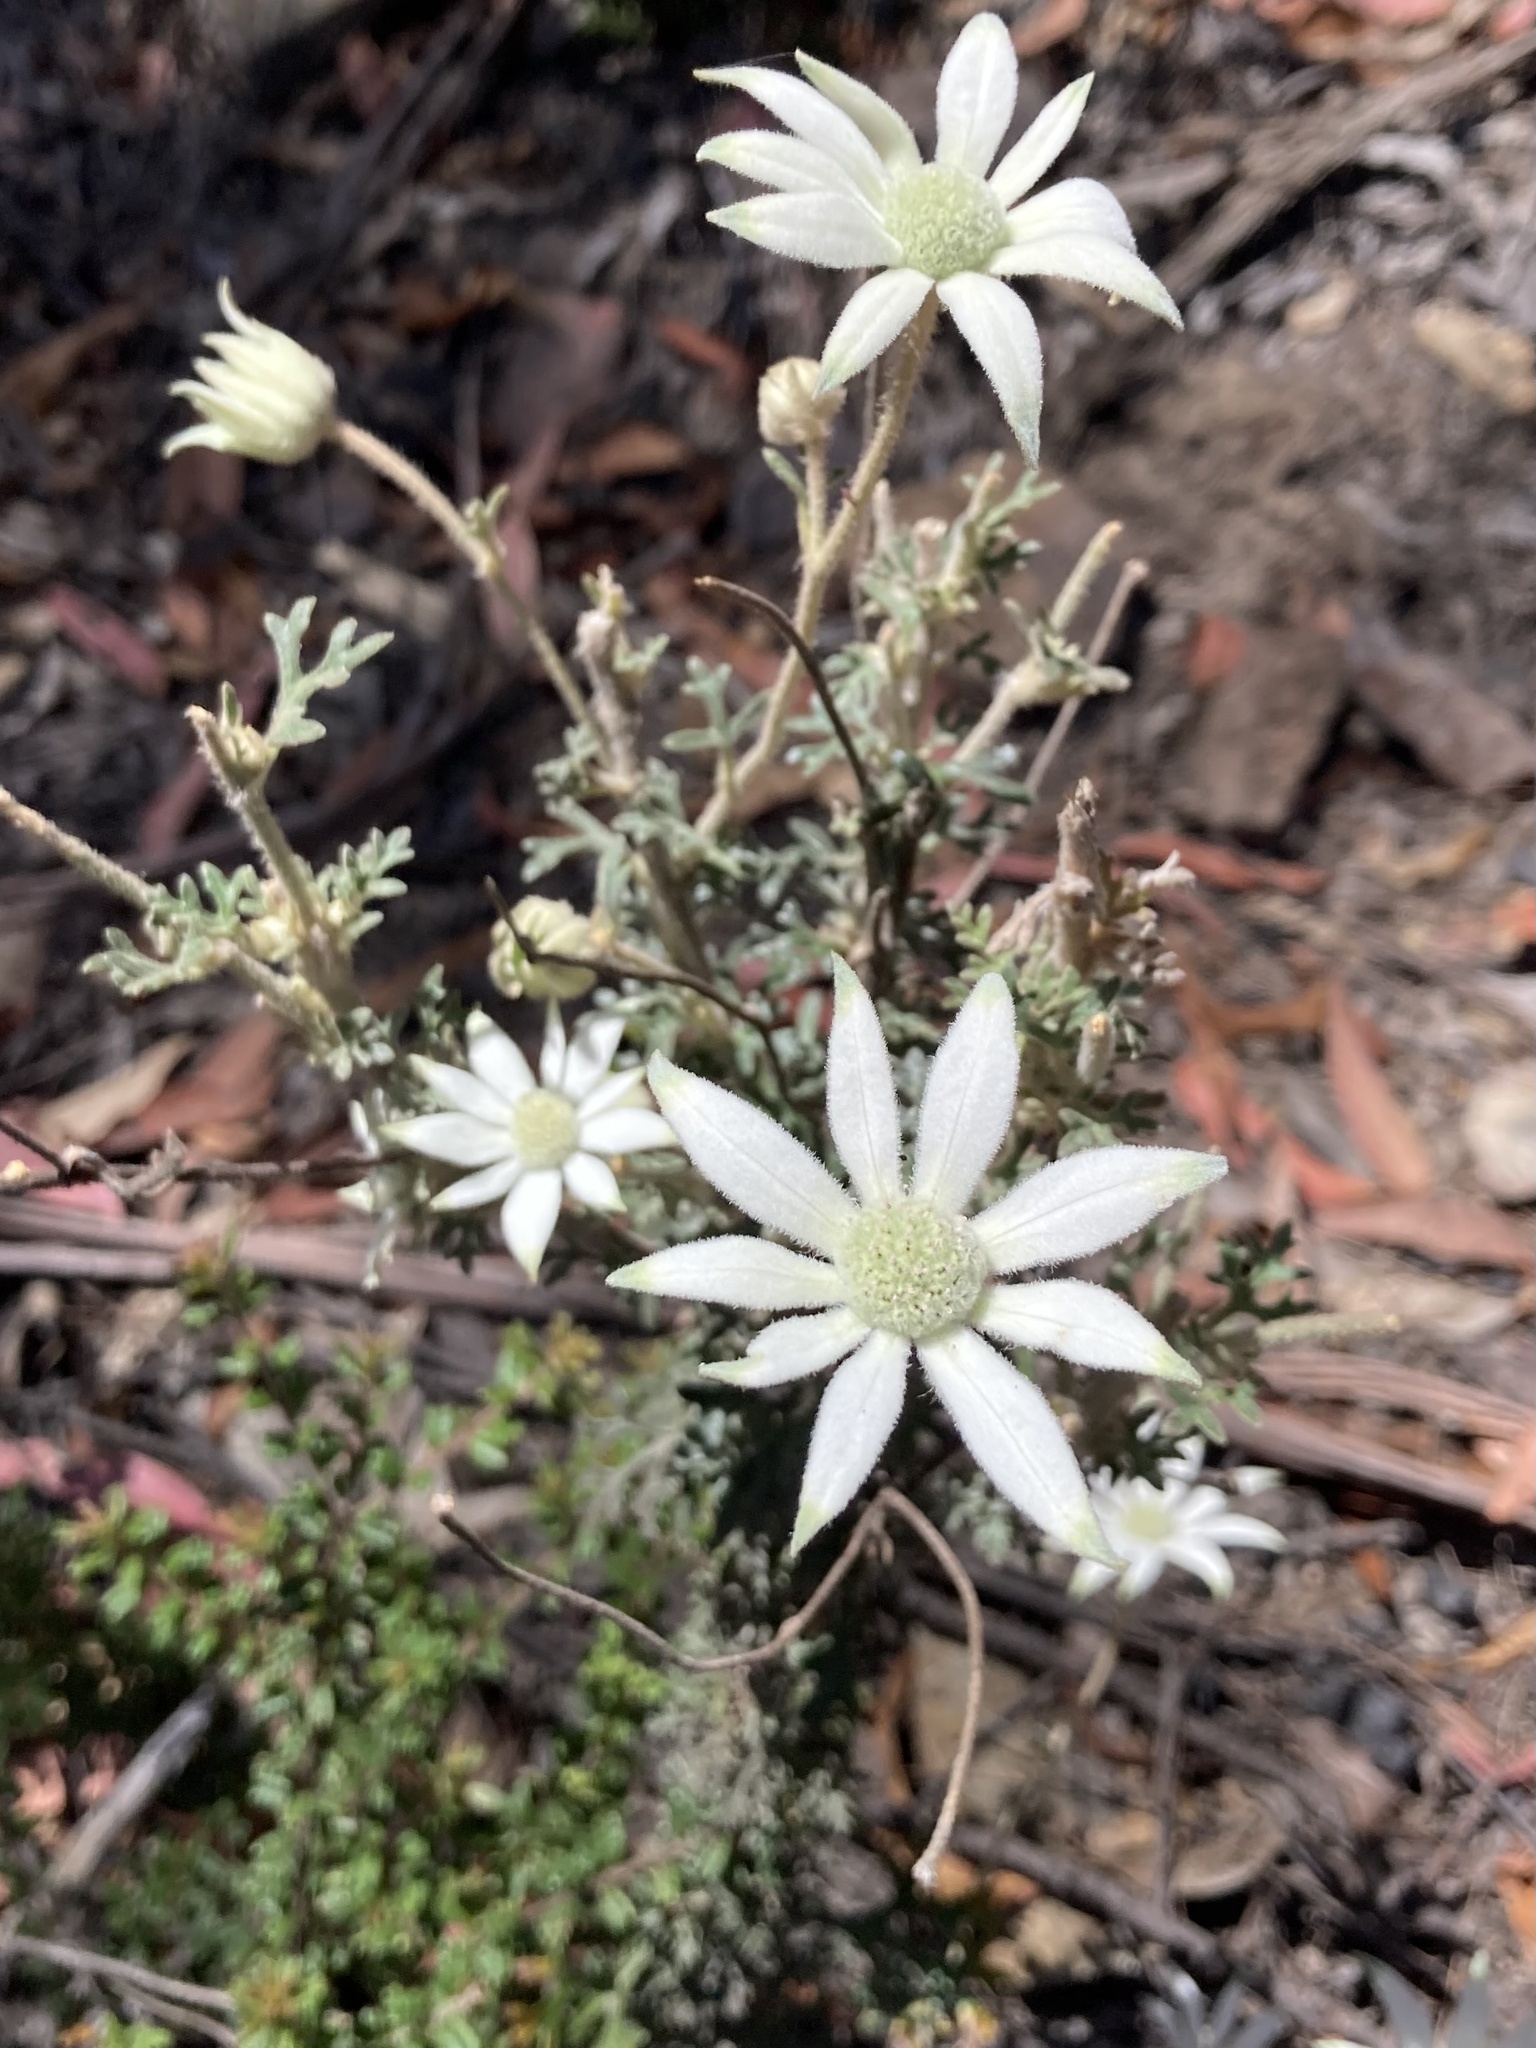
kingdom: Plantae
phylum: Tracheophyta
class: Magnoliopsida
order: Apiales
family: Apiaceae
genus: Actinotus
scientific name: Actinotus helianthi
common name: Flannel-flower
